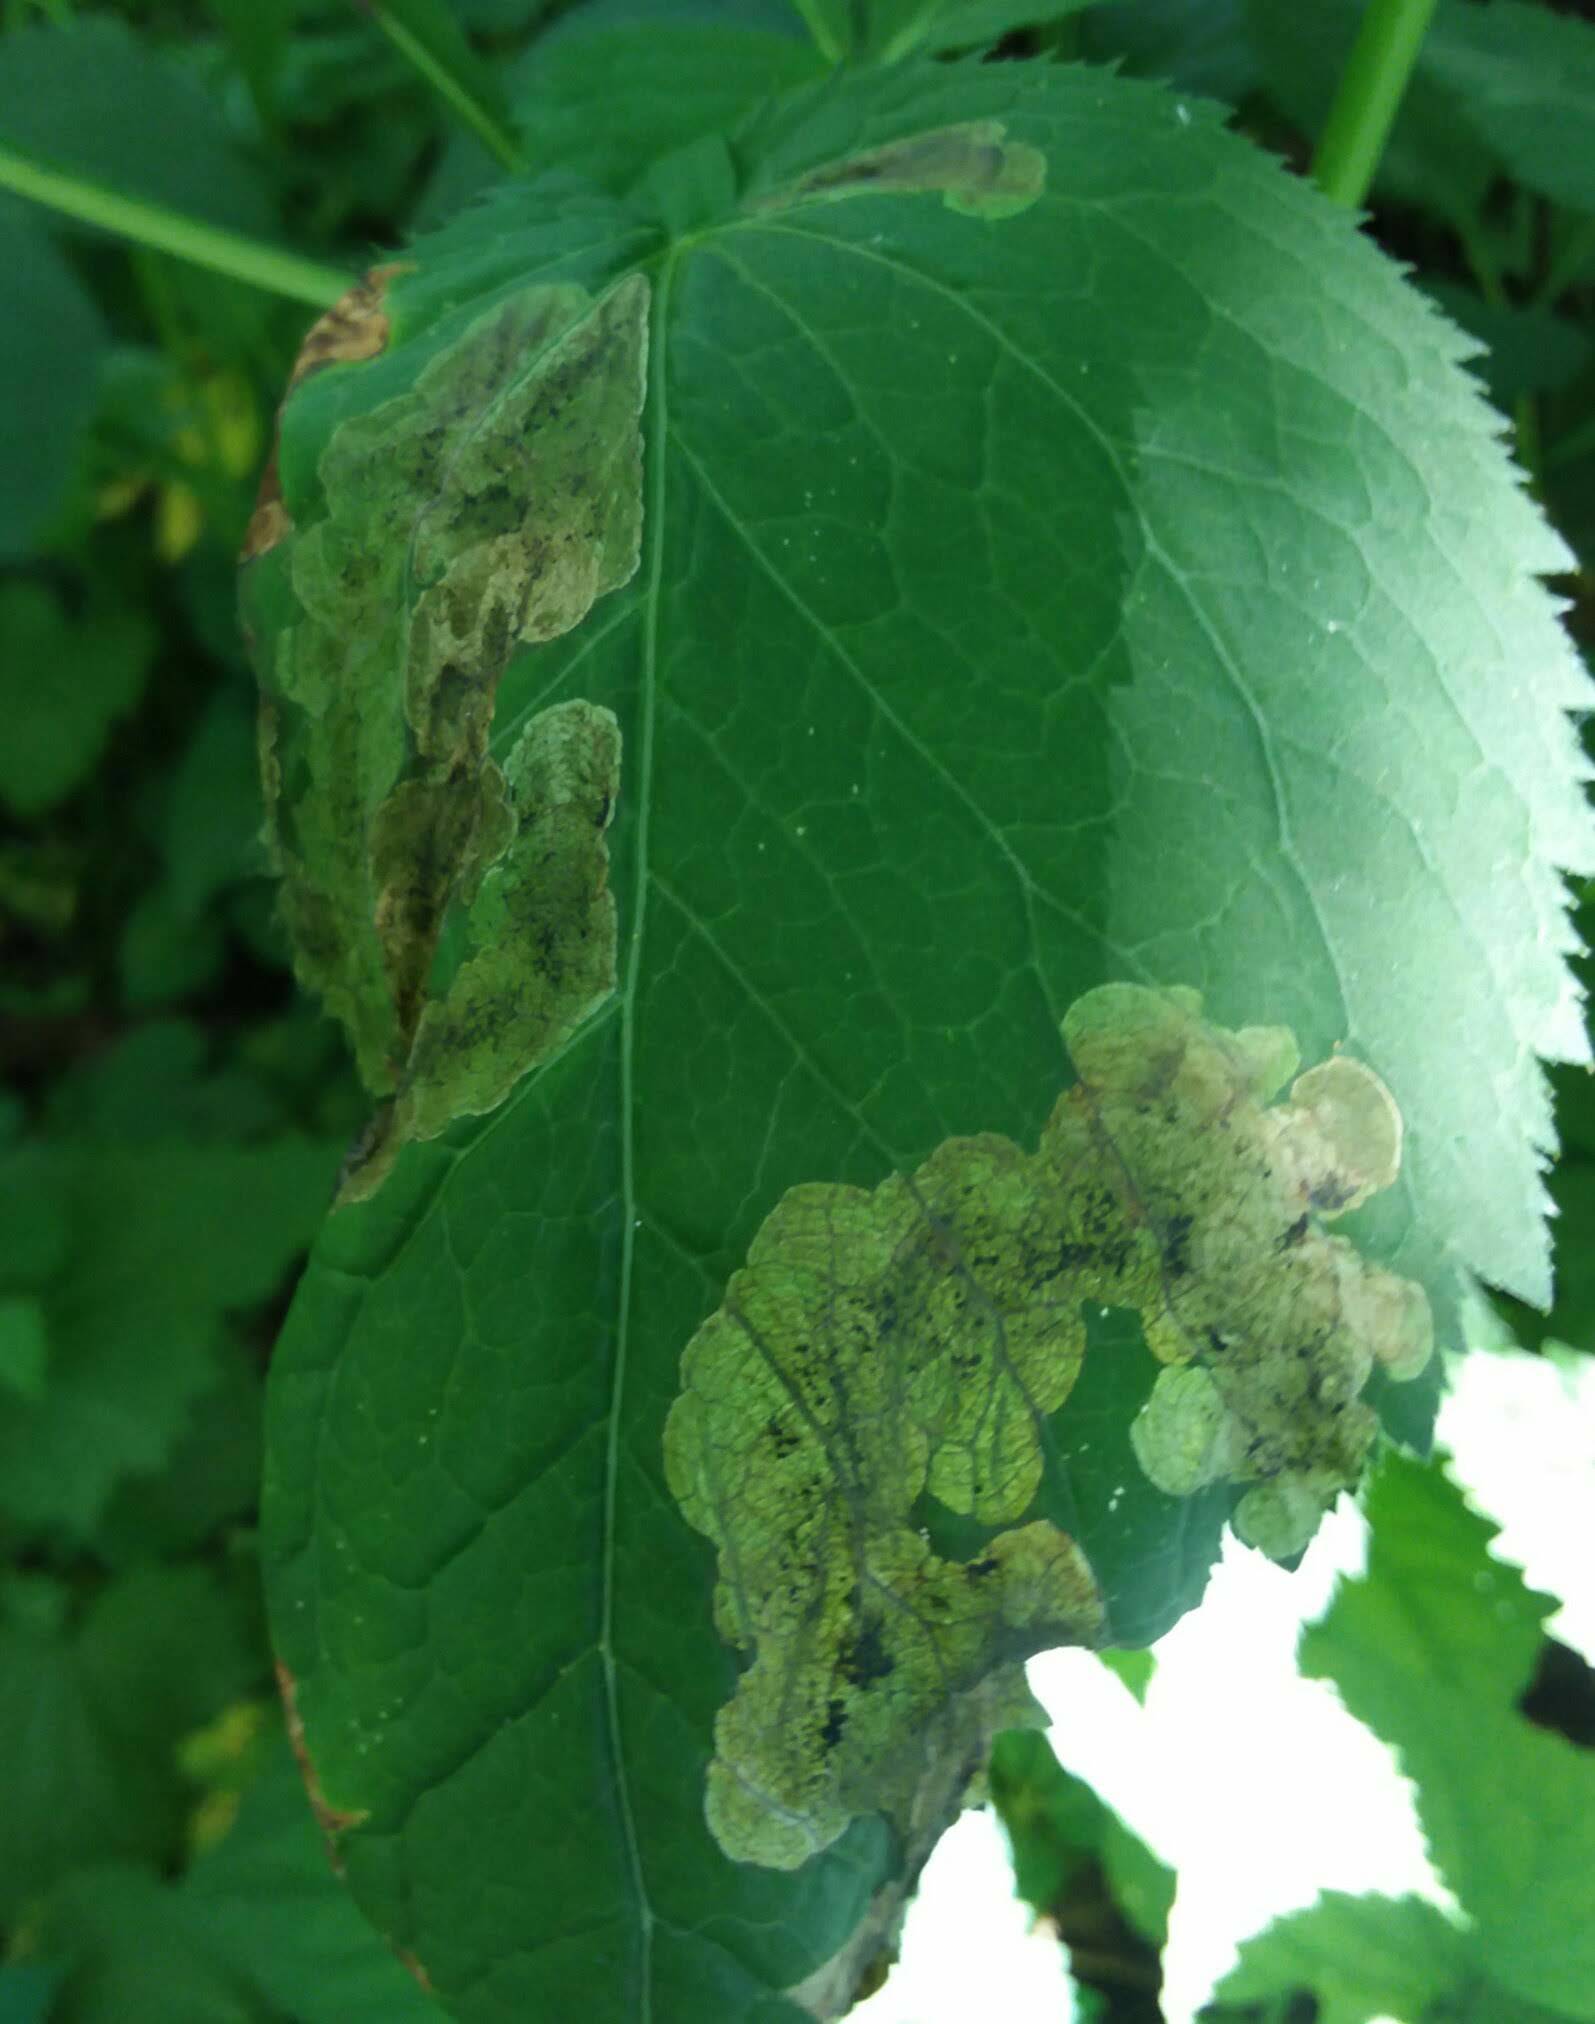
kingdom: Animalia
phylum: Arthropoda
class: Insecta
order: Diptera
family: Tephritidae
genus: Euleia
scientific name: Euleia fratria
